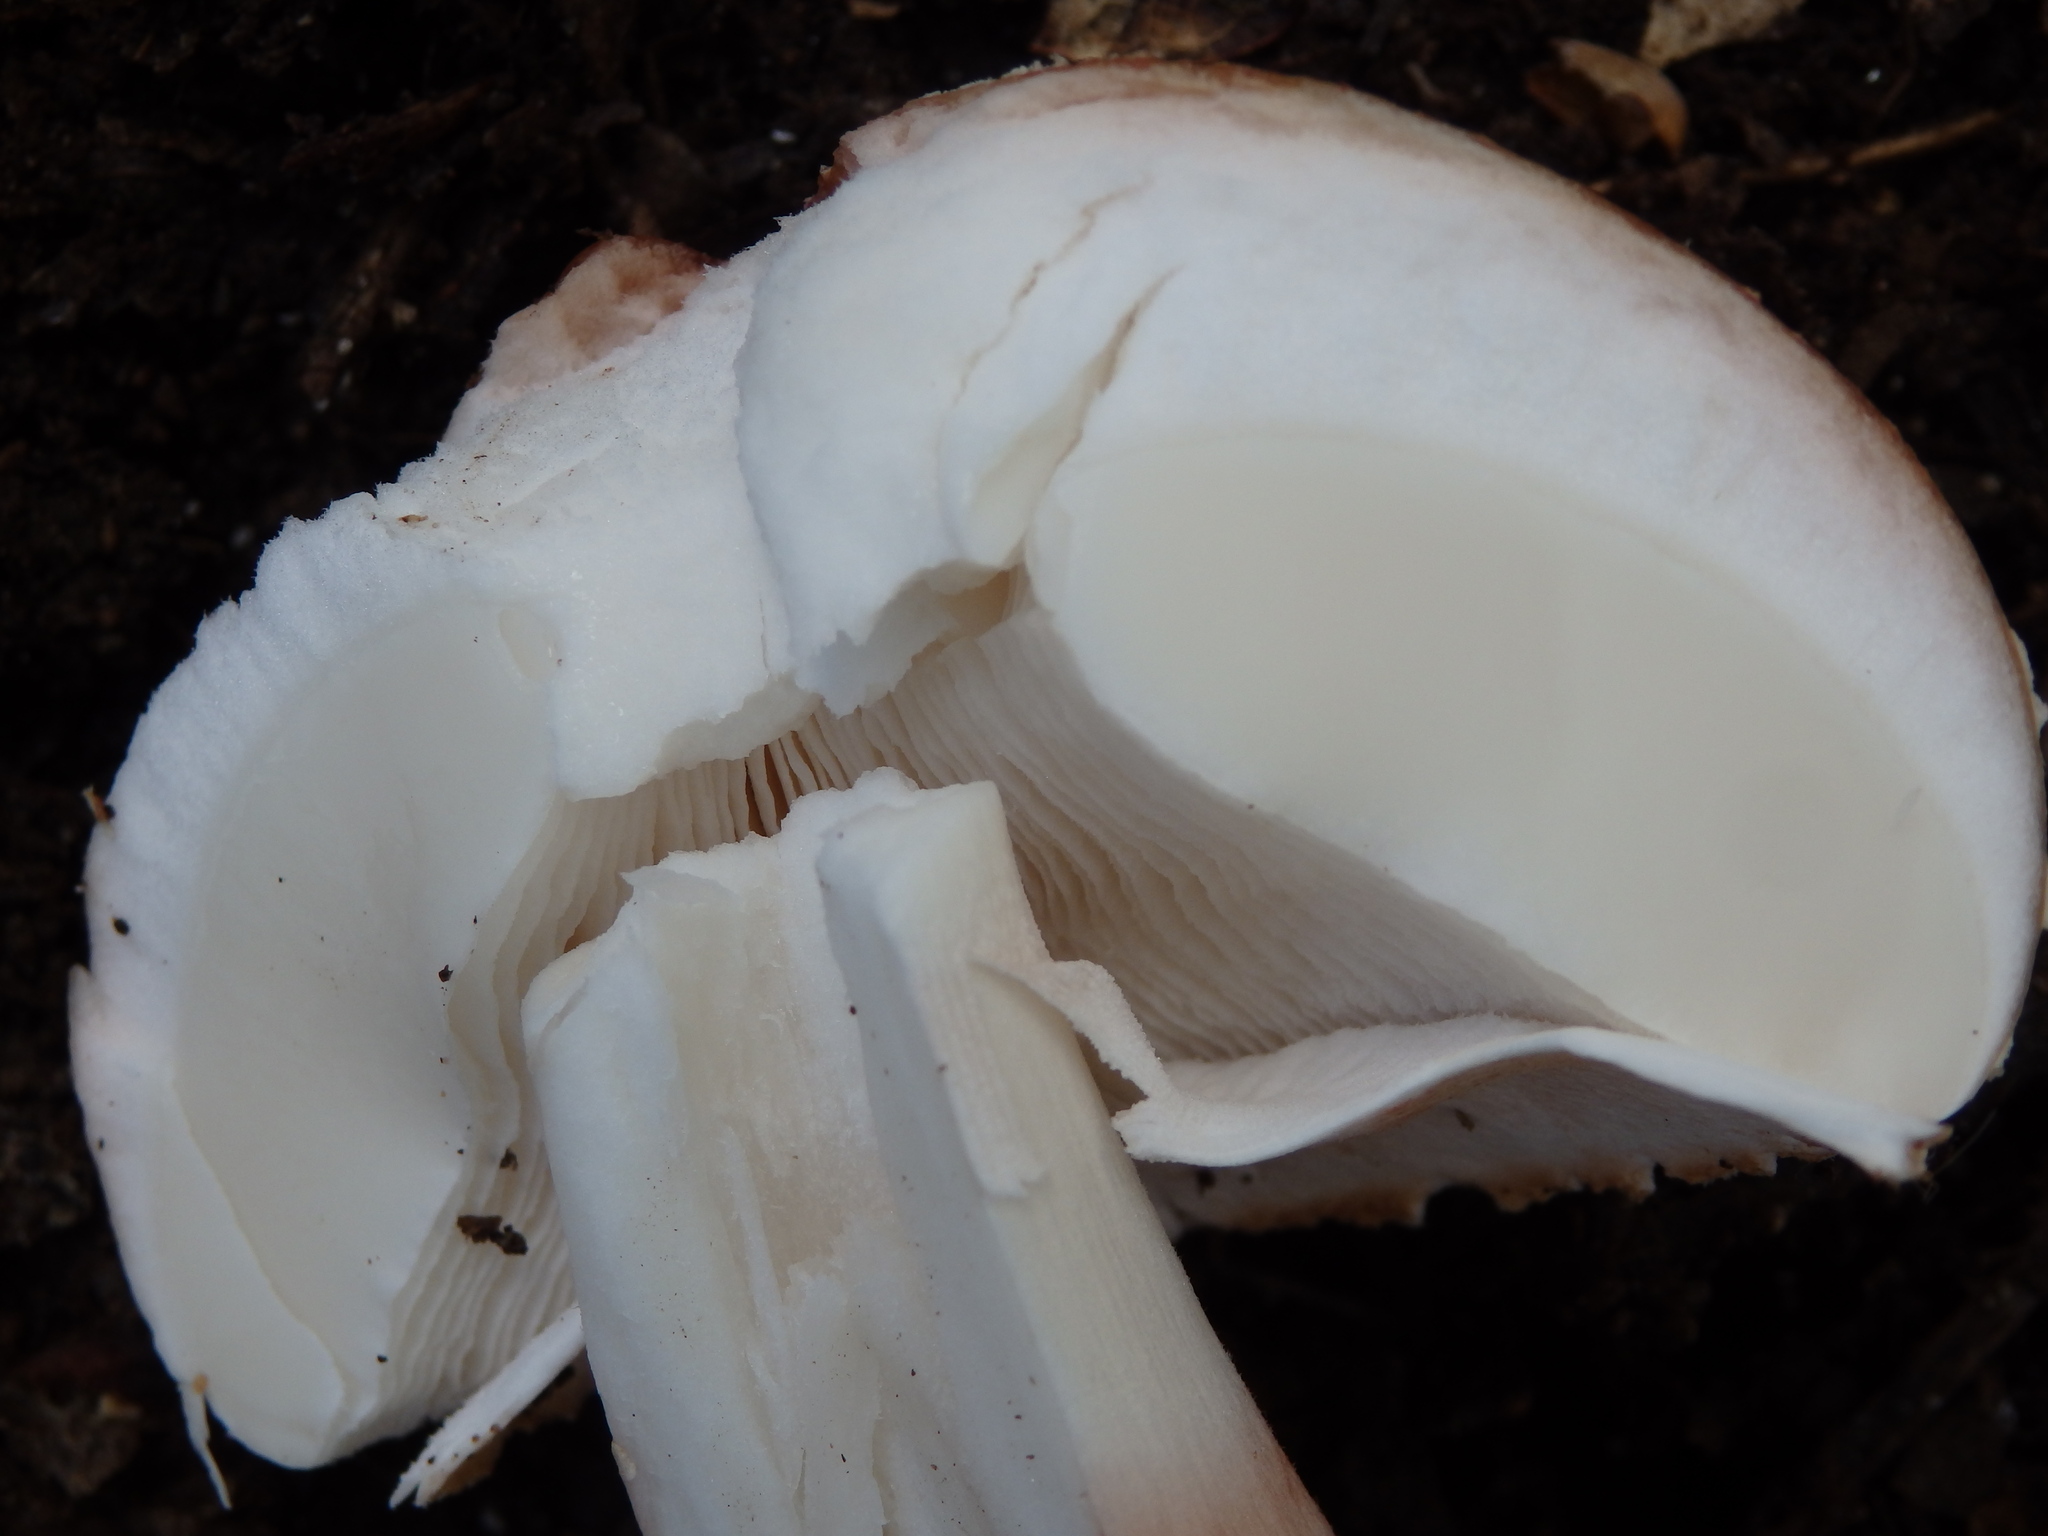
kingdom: Fungi
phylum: Basidiomycota
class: Agaricomycetes
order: Agaricales
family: Amanitaceae
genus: Amanita
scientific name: Amanita rubescens
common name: Blusher
